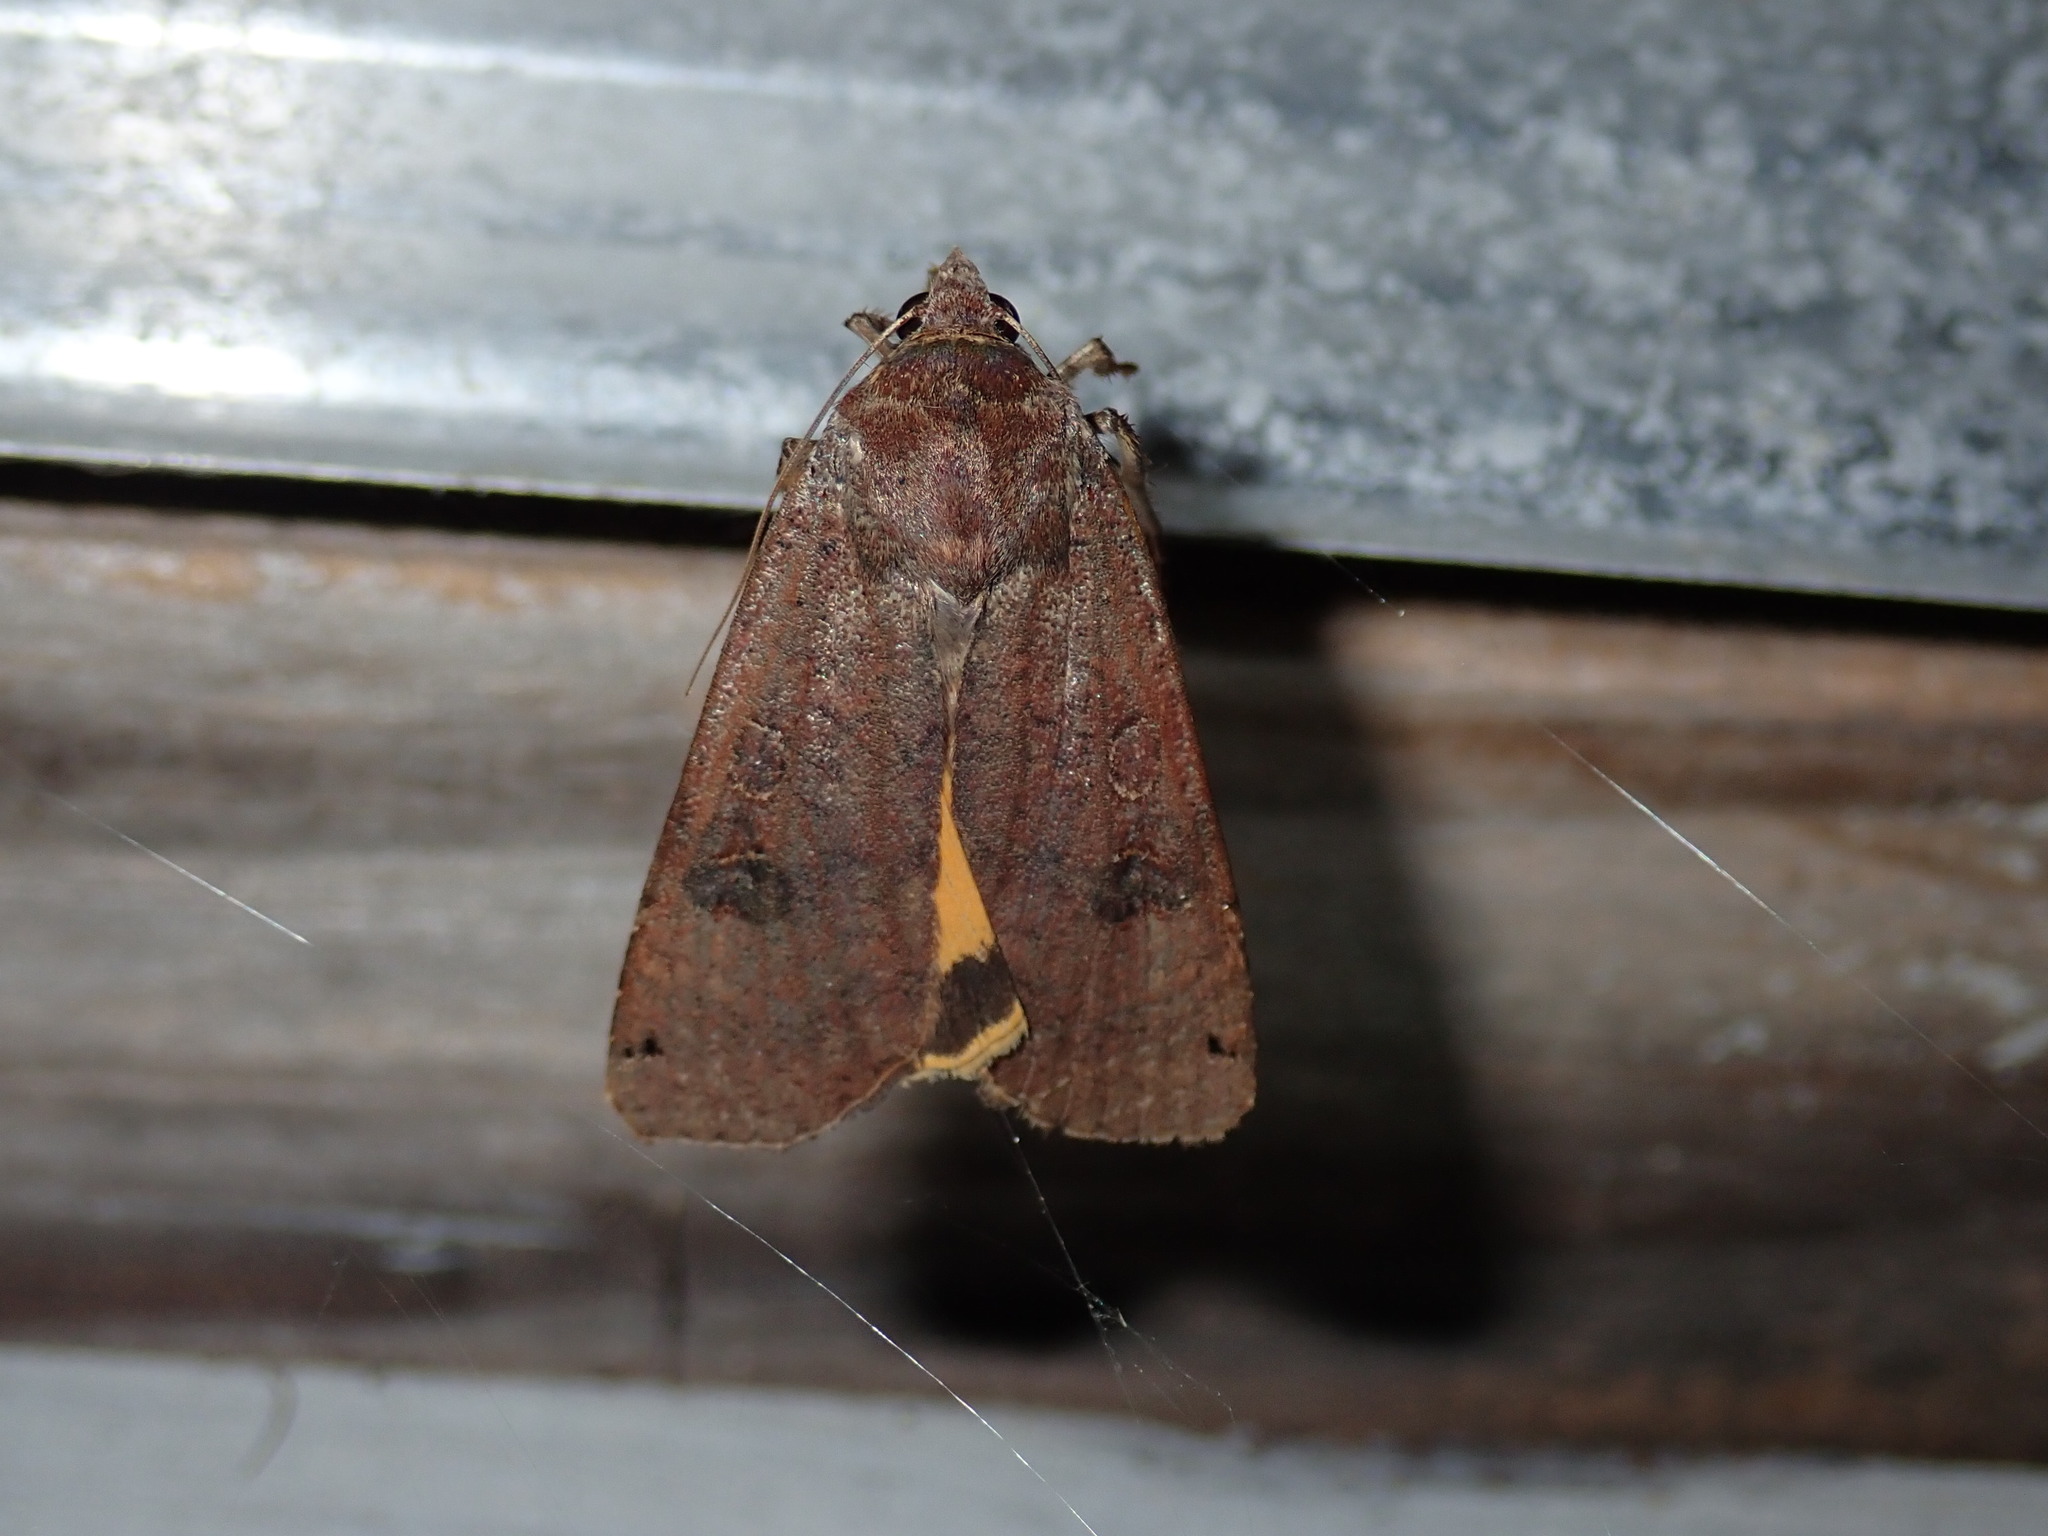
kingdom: Animalia
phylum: Arthropoda
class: Insecta
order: Lepidoptera
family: Noctuidae
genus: Noctua
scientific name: Noctua pronuba
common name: Large yellow underwing
